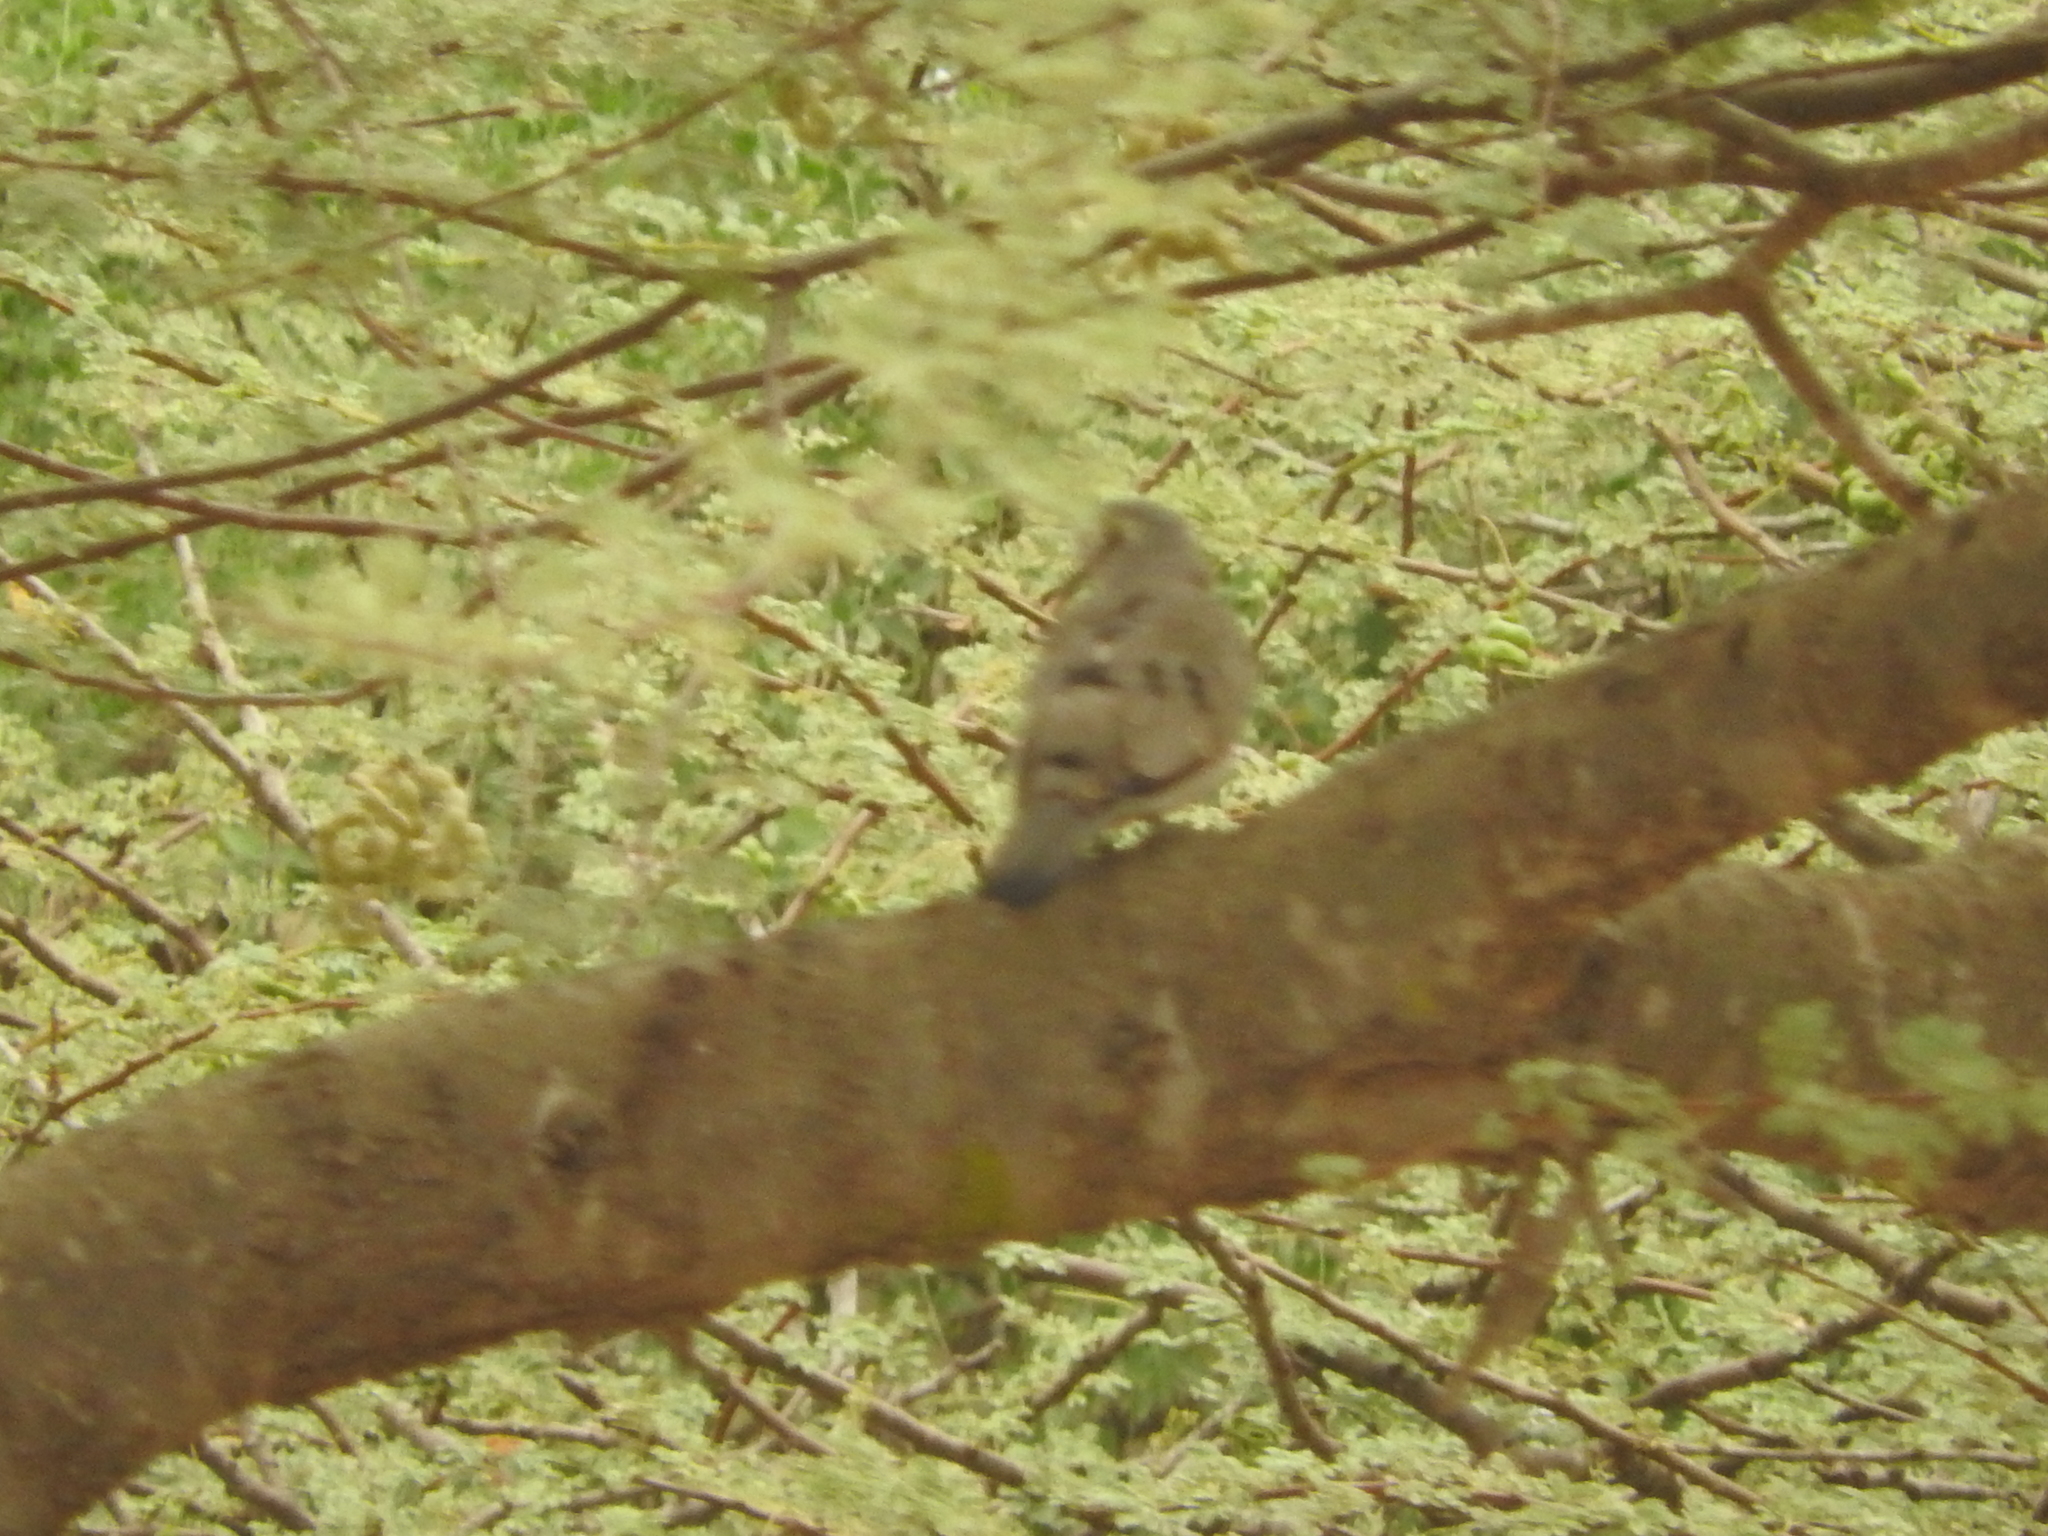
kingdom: Animalia
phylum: Chordata
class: Aves
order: Columbiformes
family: Columbidae
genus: Turtur
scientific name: Turtur abyssinicus
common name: Black-billed wood dove
